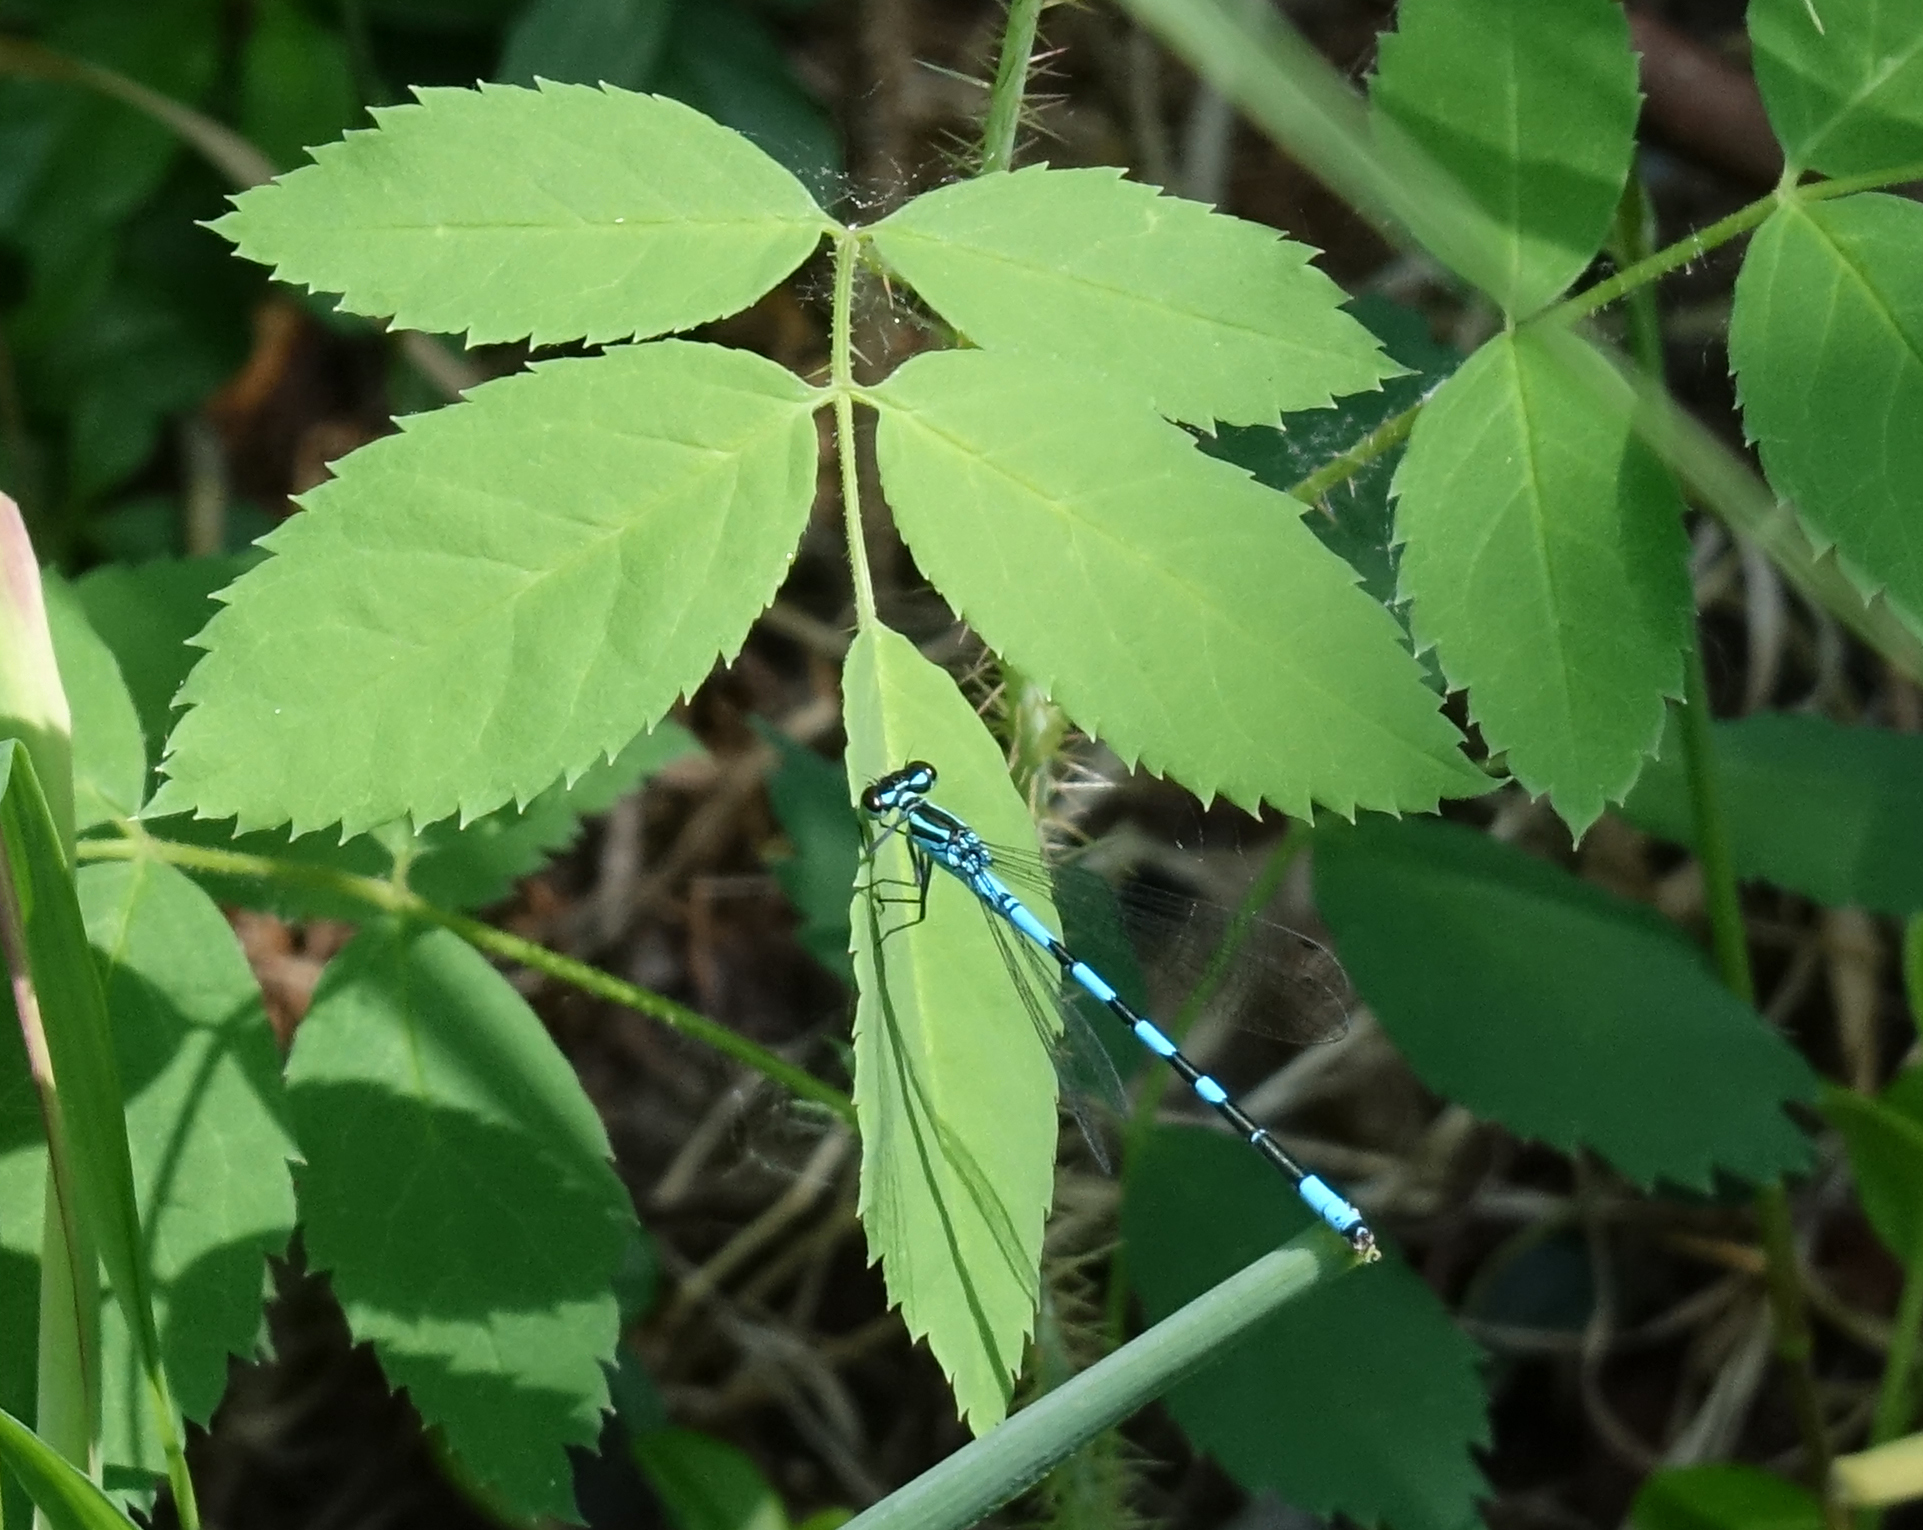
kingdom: Animalia
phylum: Arthropoda
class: Insecta
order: Odonata
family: Coenagrionidae
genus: Coenagrion
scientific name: Coenagrion hastulatum
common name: Spearhead bluet
